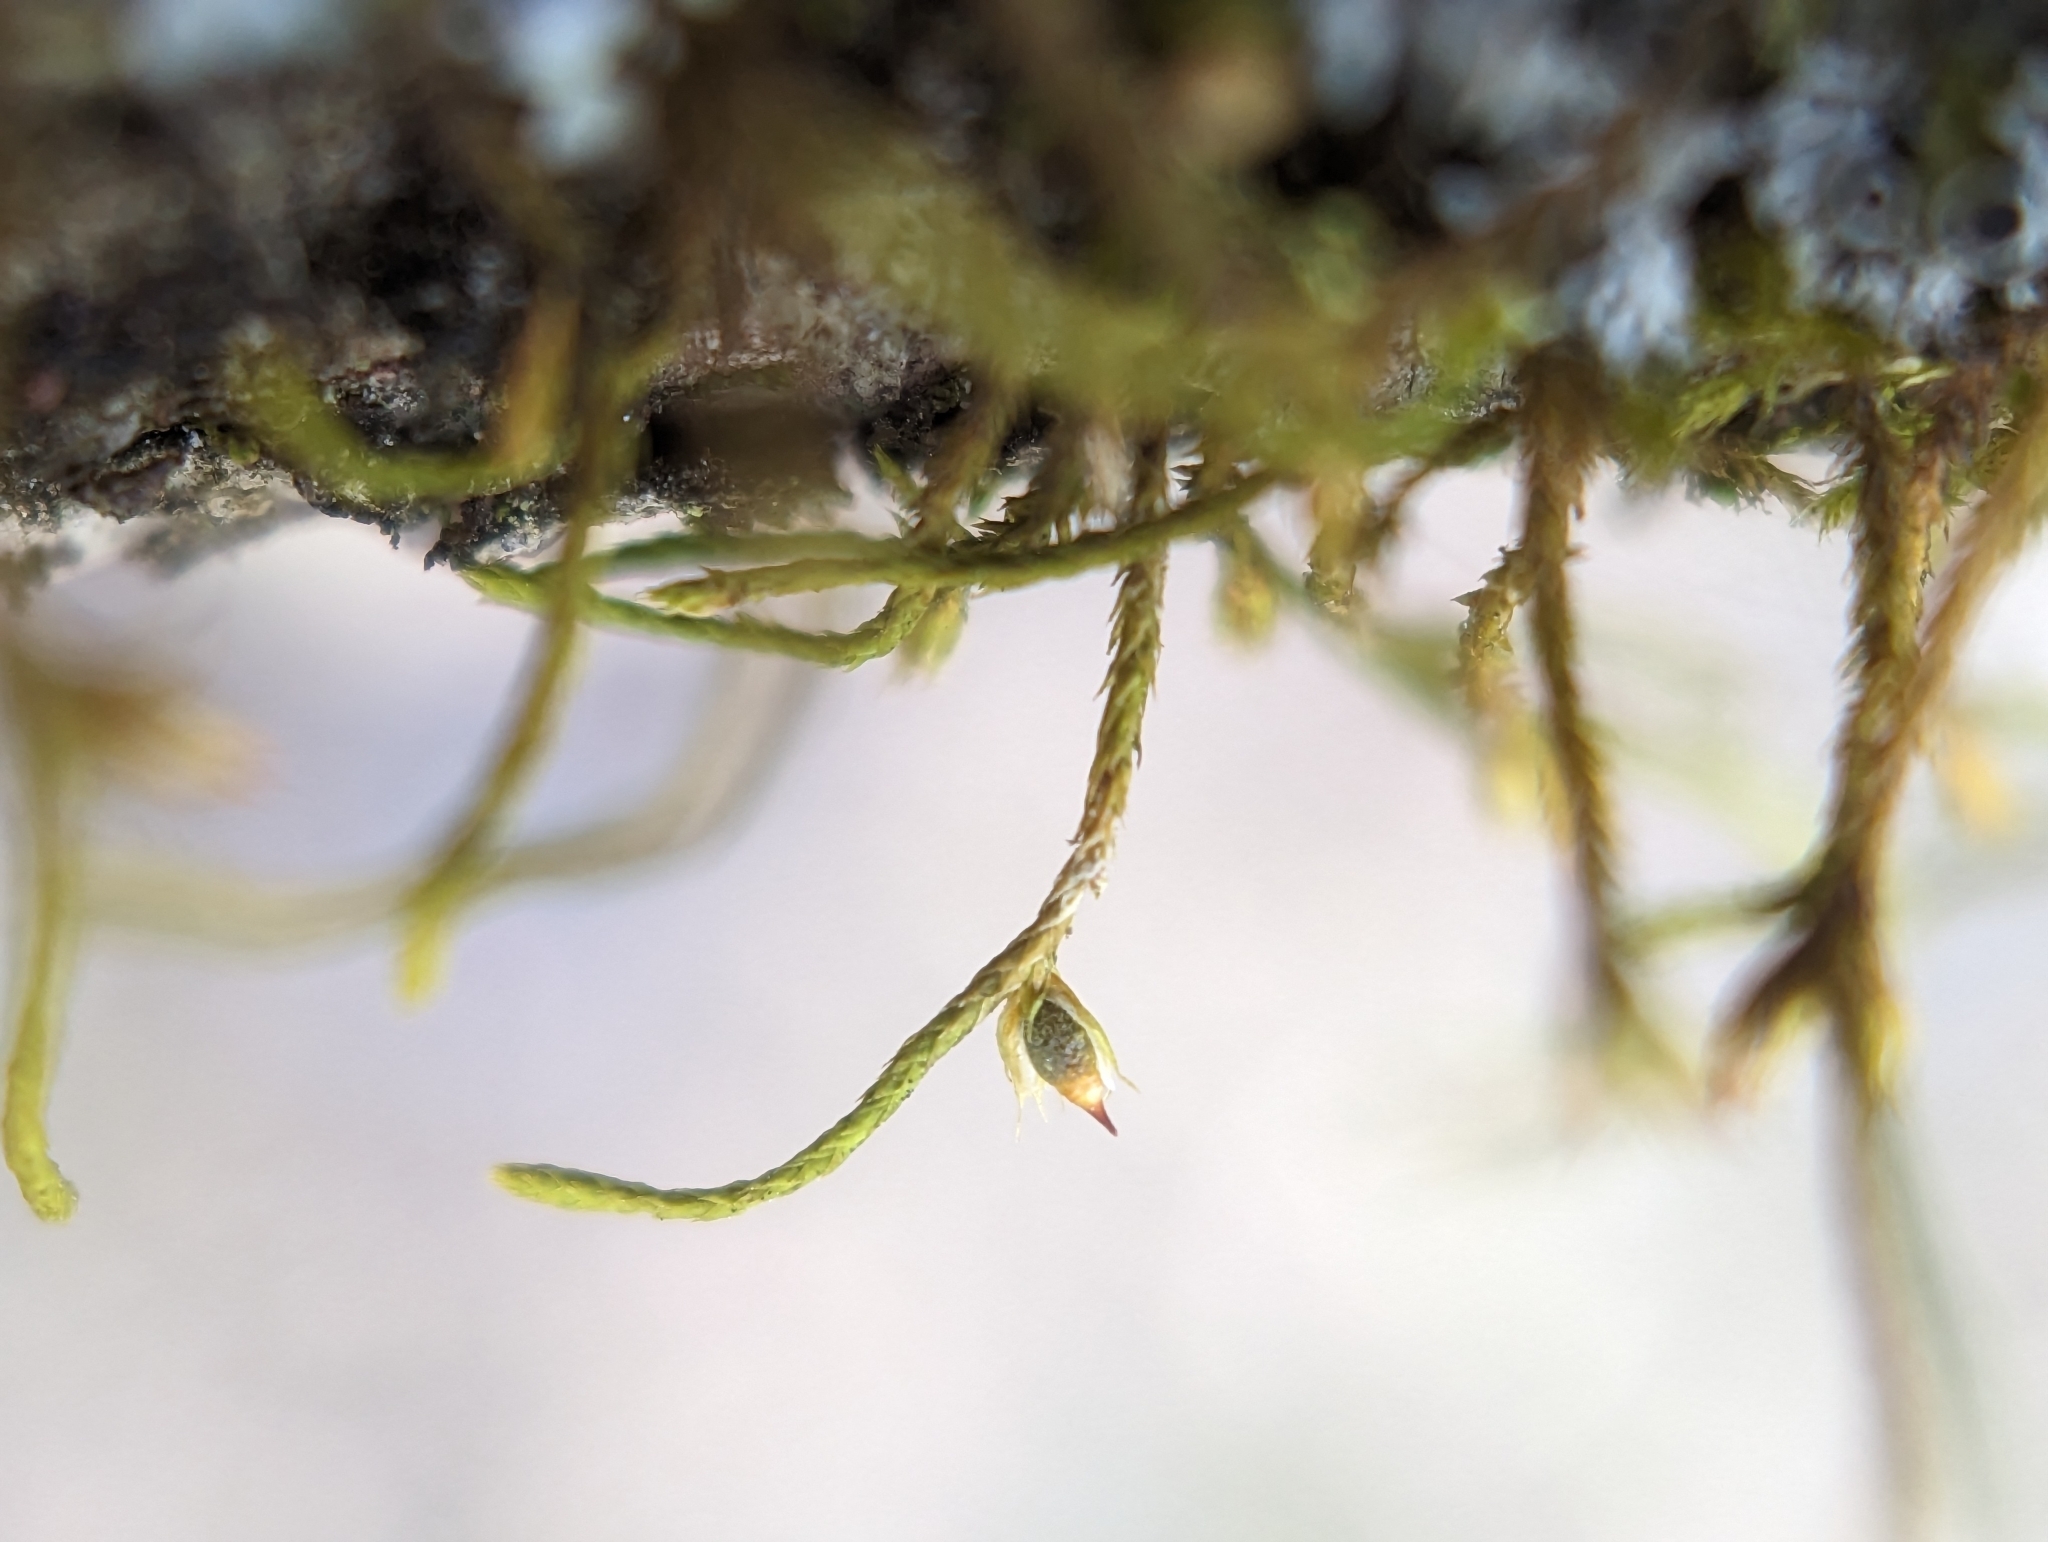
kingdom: Plantae
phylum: Bryophyta
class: Bryopsida
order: Hypnales
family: Cryphaeaceae
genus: Cryphaea
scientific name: Cryphaea glomerata
